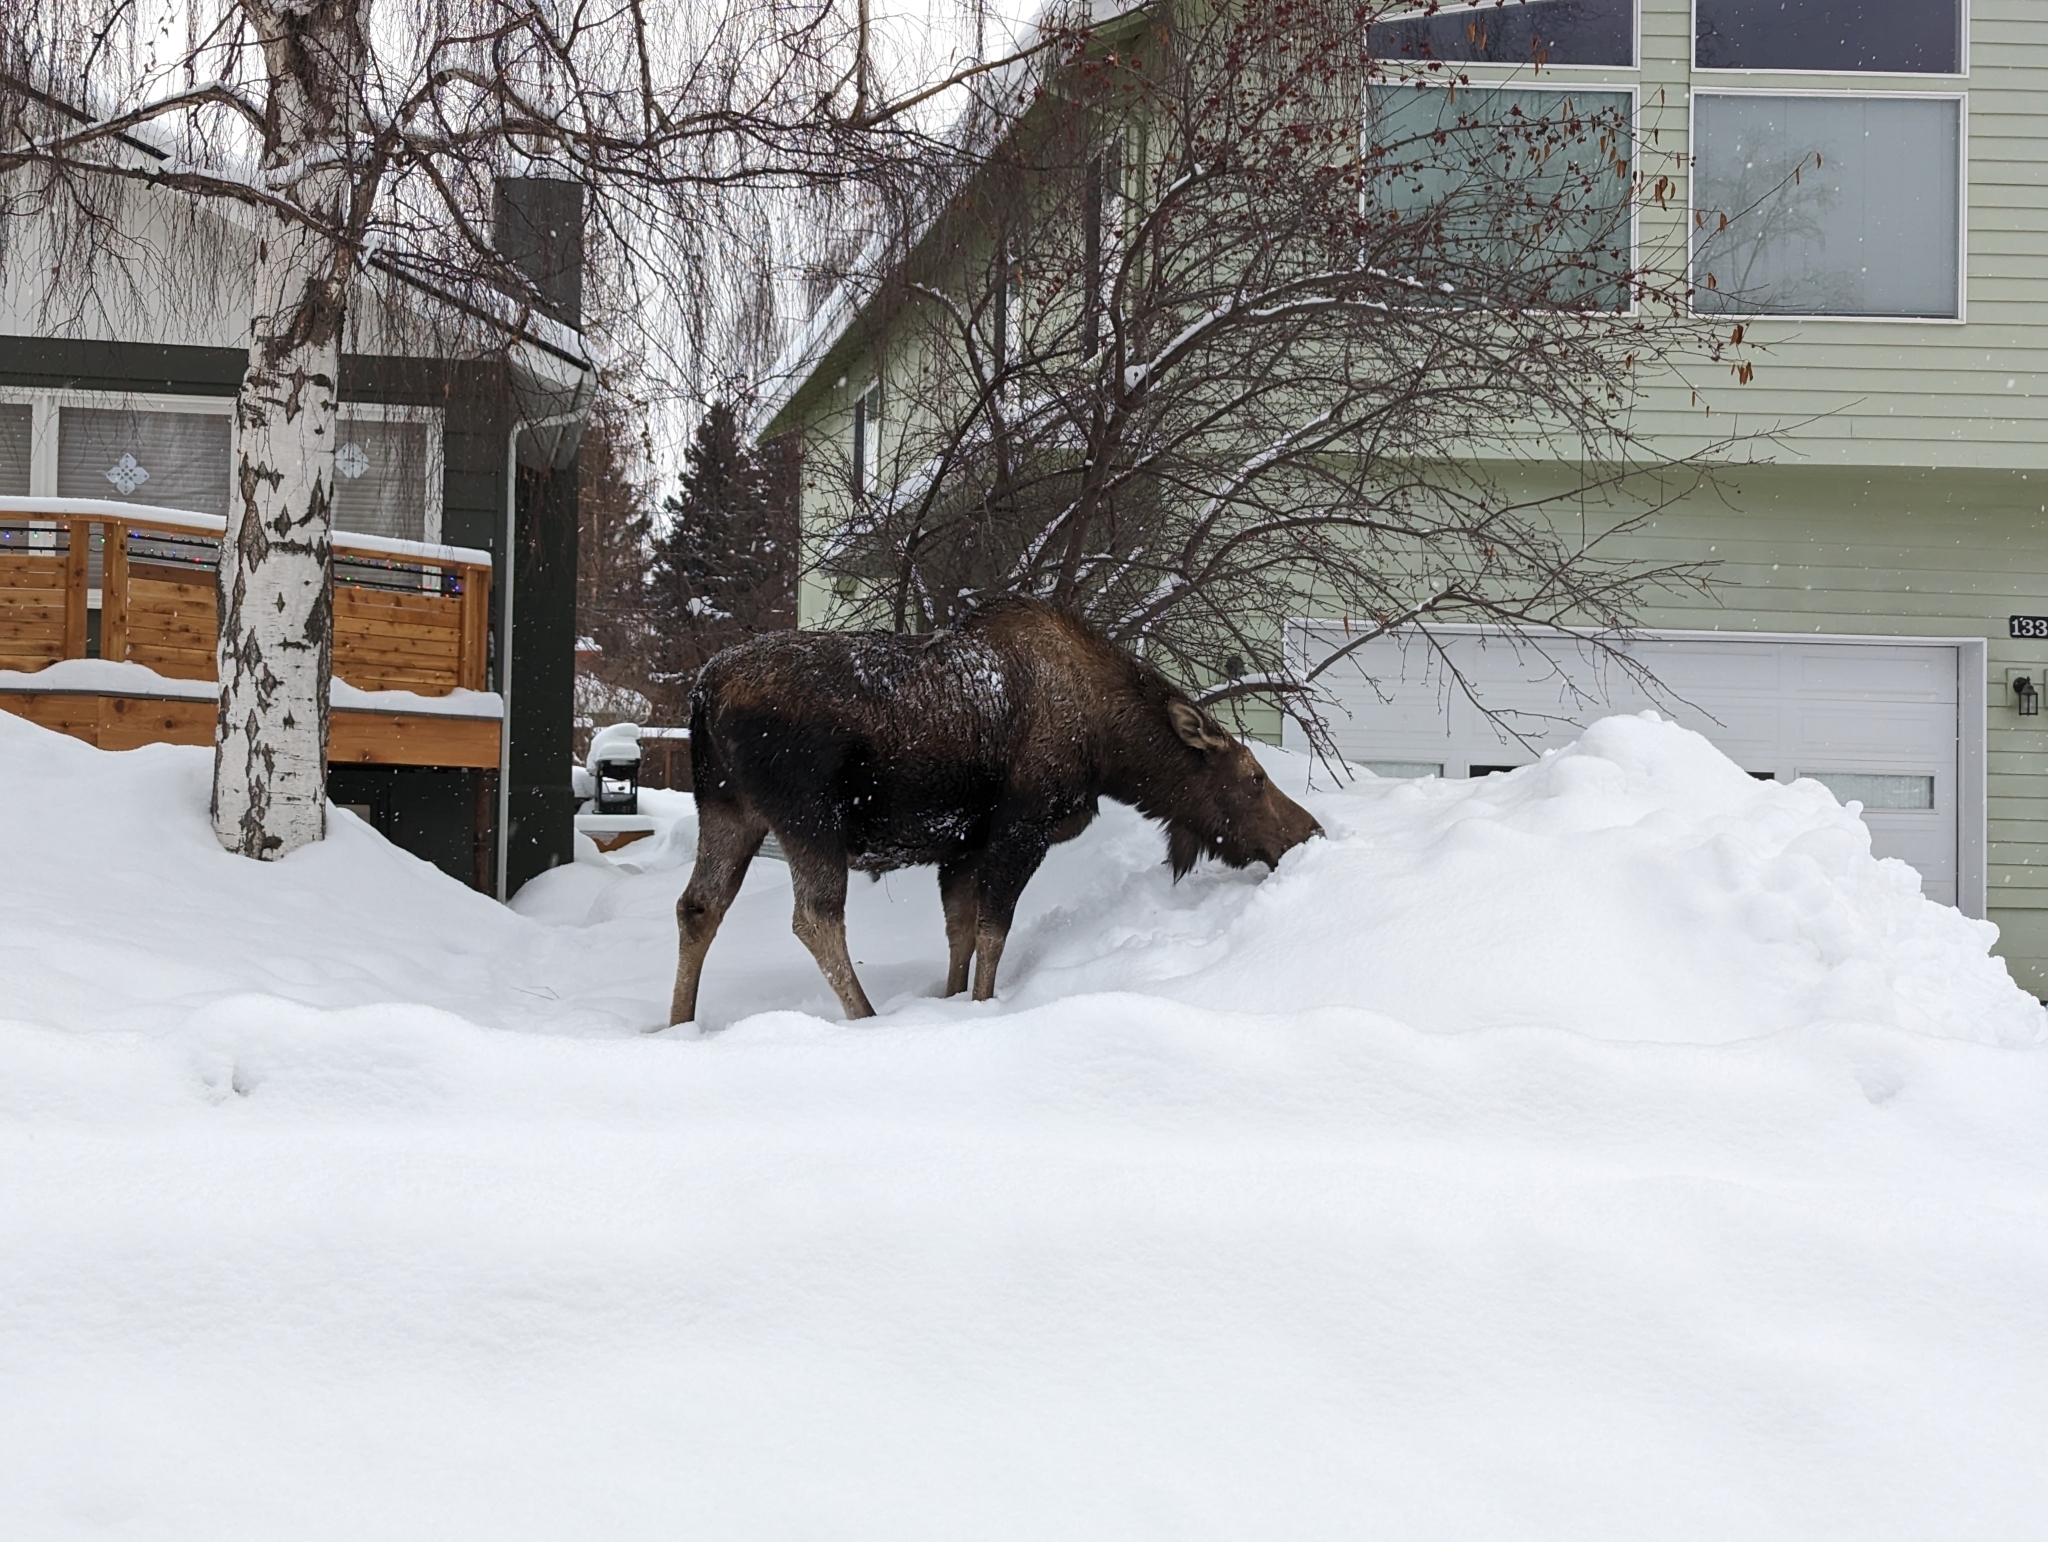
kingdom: Animalia
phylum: Chordata
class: Mammalia
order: Artiodactyla
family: Cervidae
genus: Alces
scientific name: Alces alces
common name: Moose
